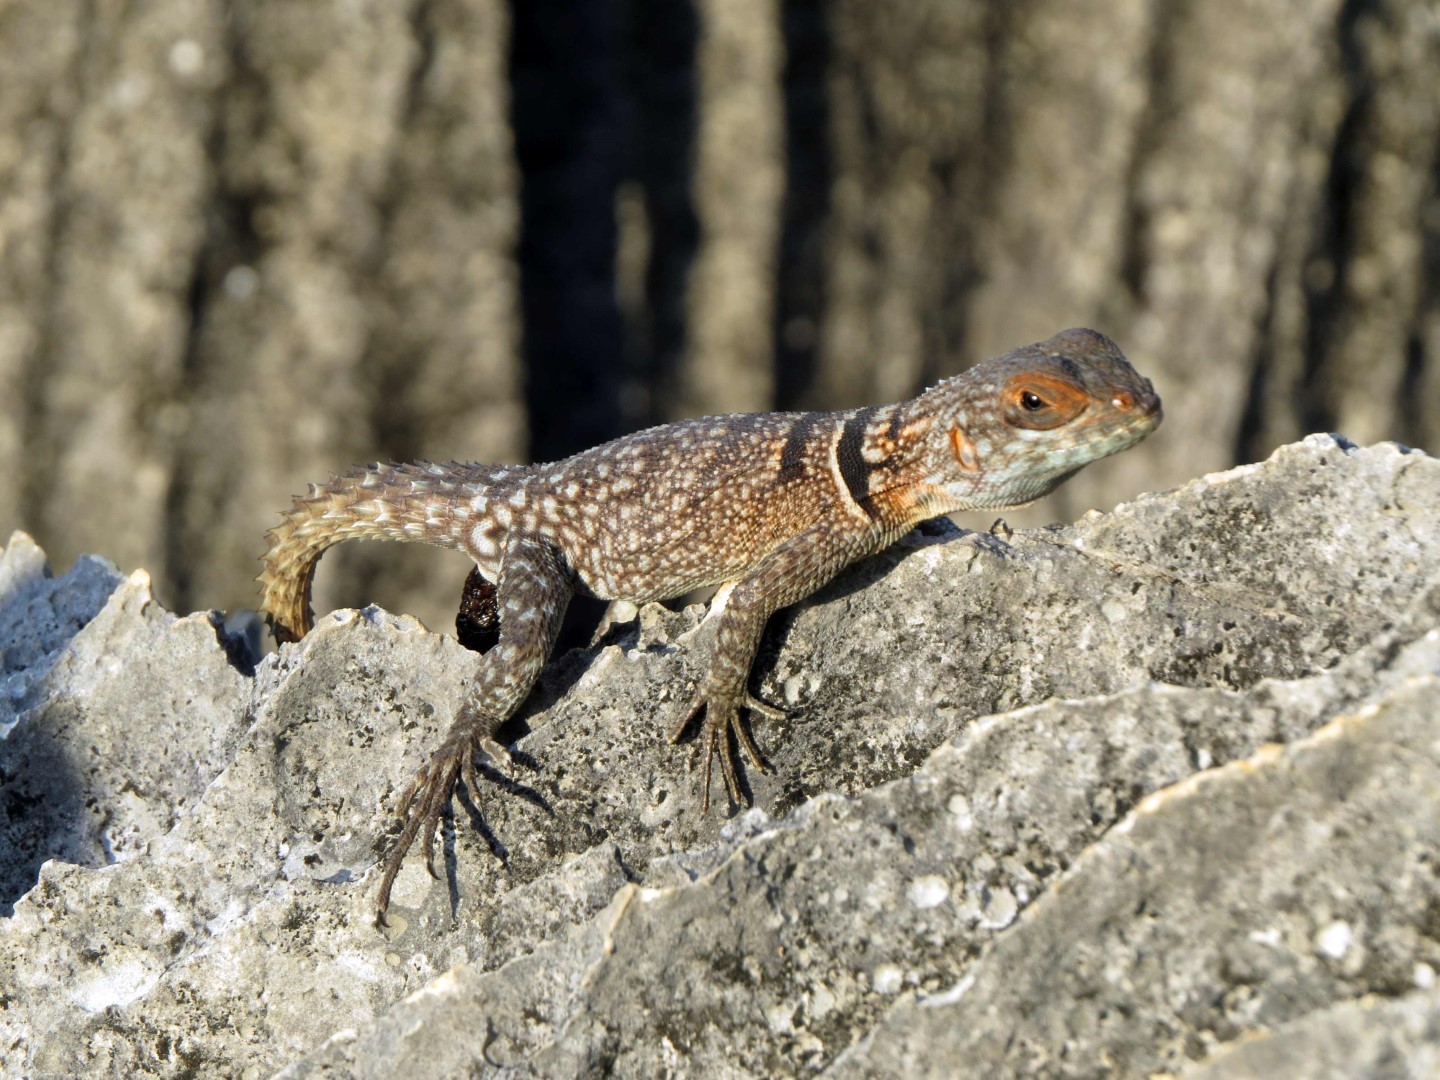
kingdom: Animalia
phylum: Chordata
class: Squamata
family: Opluridae
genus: Oplurus
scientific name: Oplurus cuvieri
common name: Cuvier's madagascar swift
